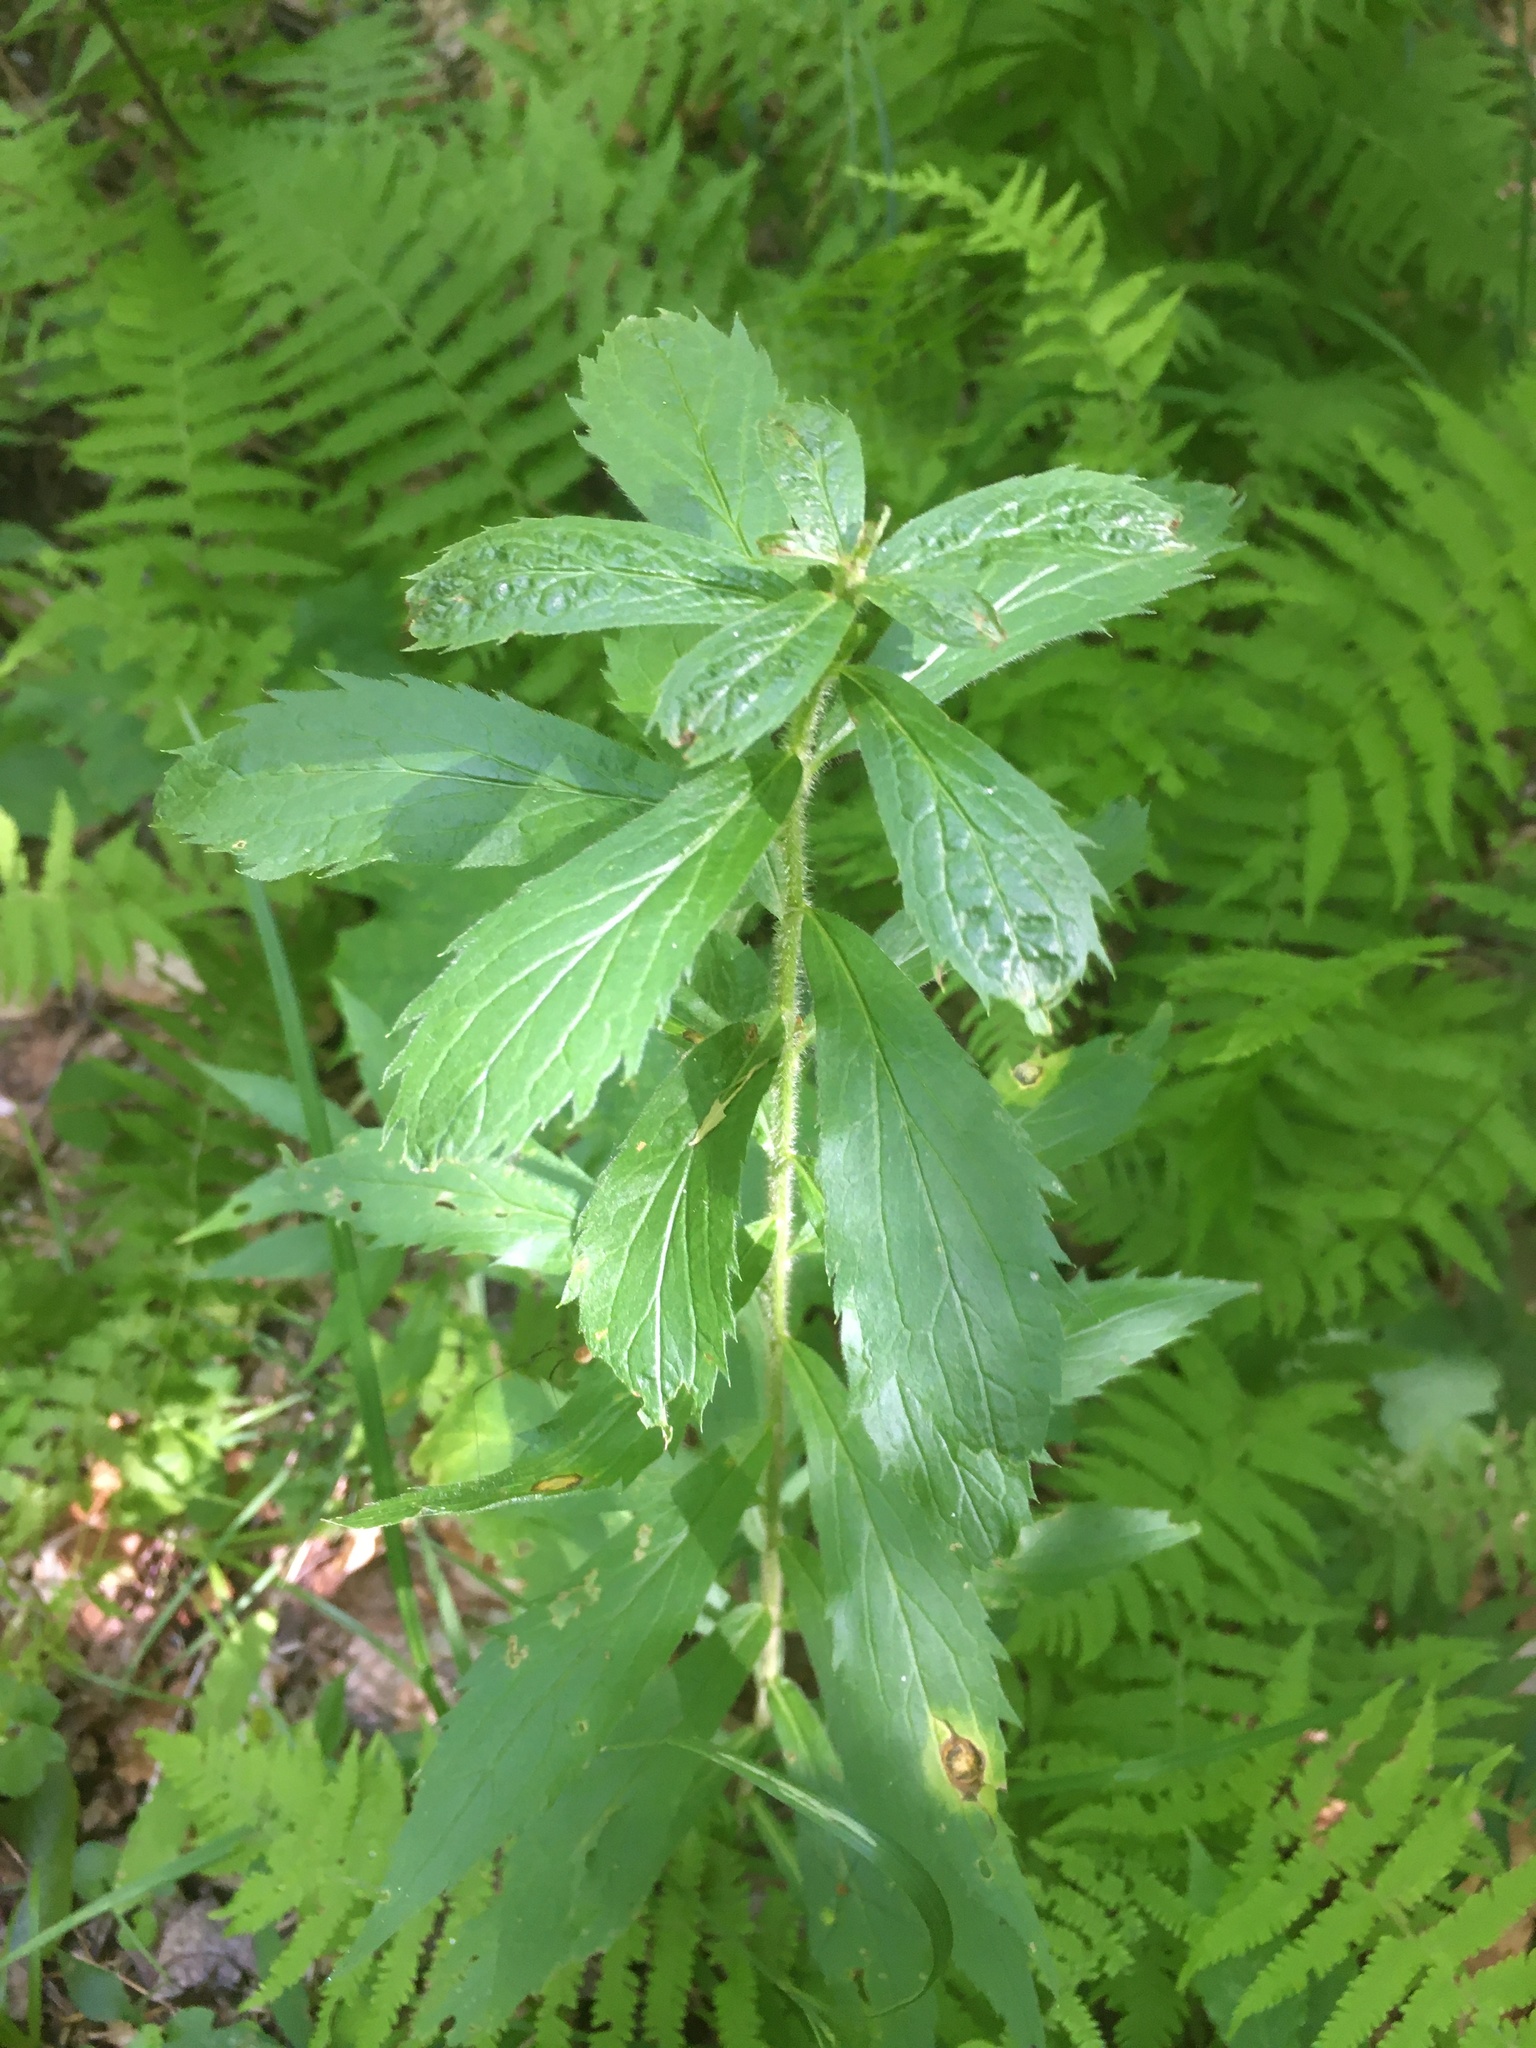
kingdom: Plantae
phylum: Tracheophyta
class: Magnoliopsida
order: Asterales
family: Asteraceae
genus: Solidago
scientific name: Solidago rugosa
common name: Rough-stemmed goldenrod
